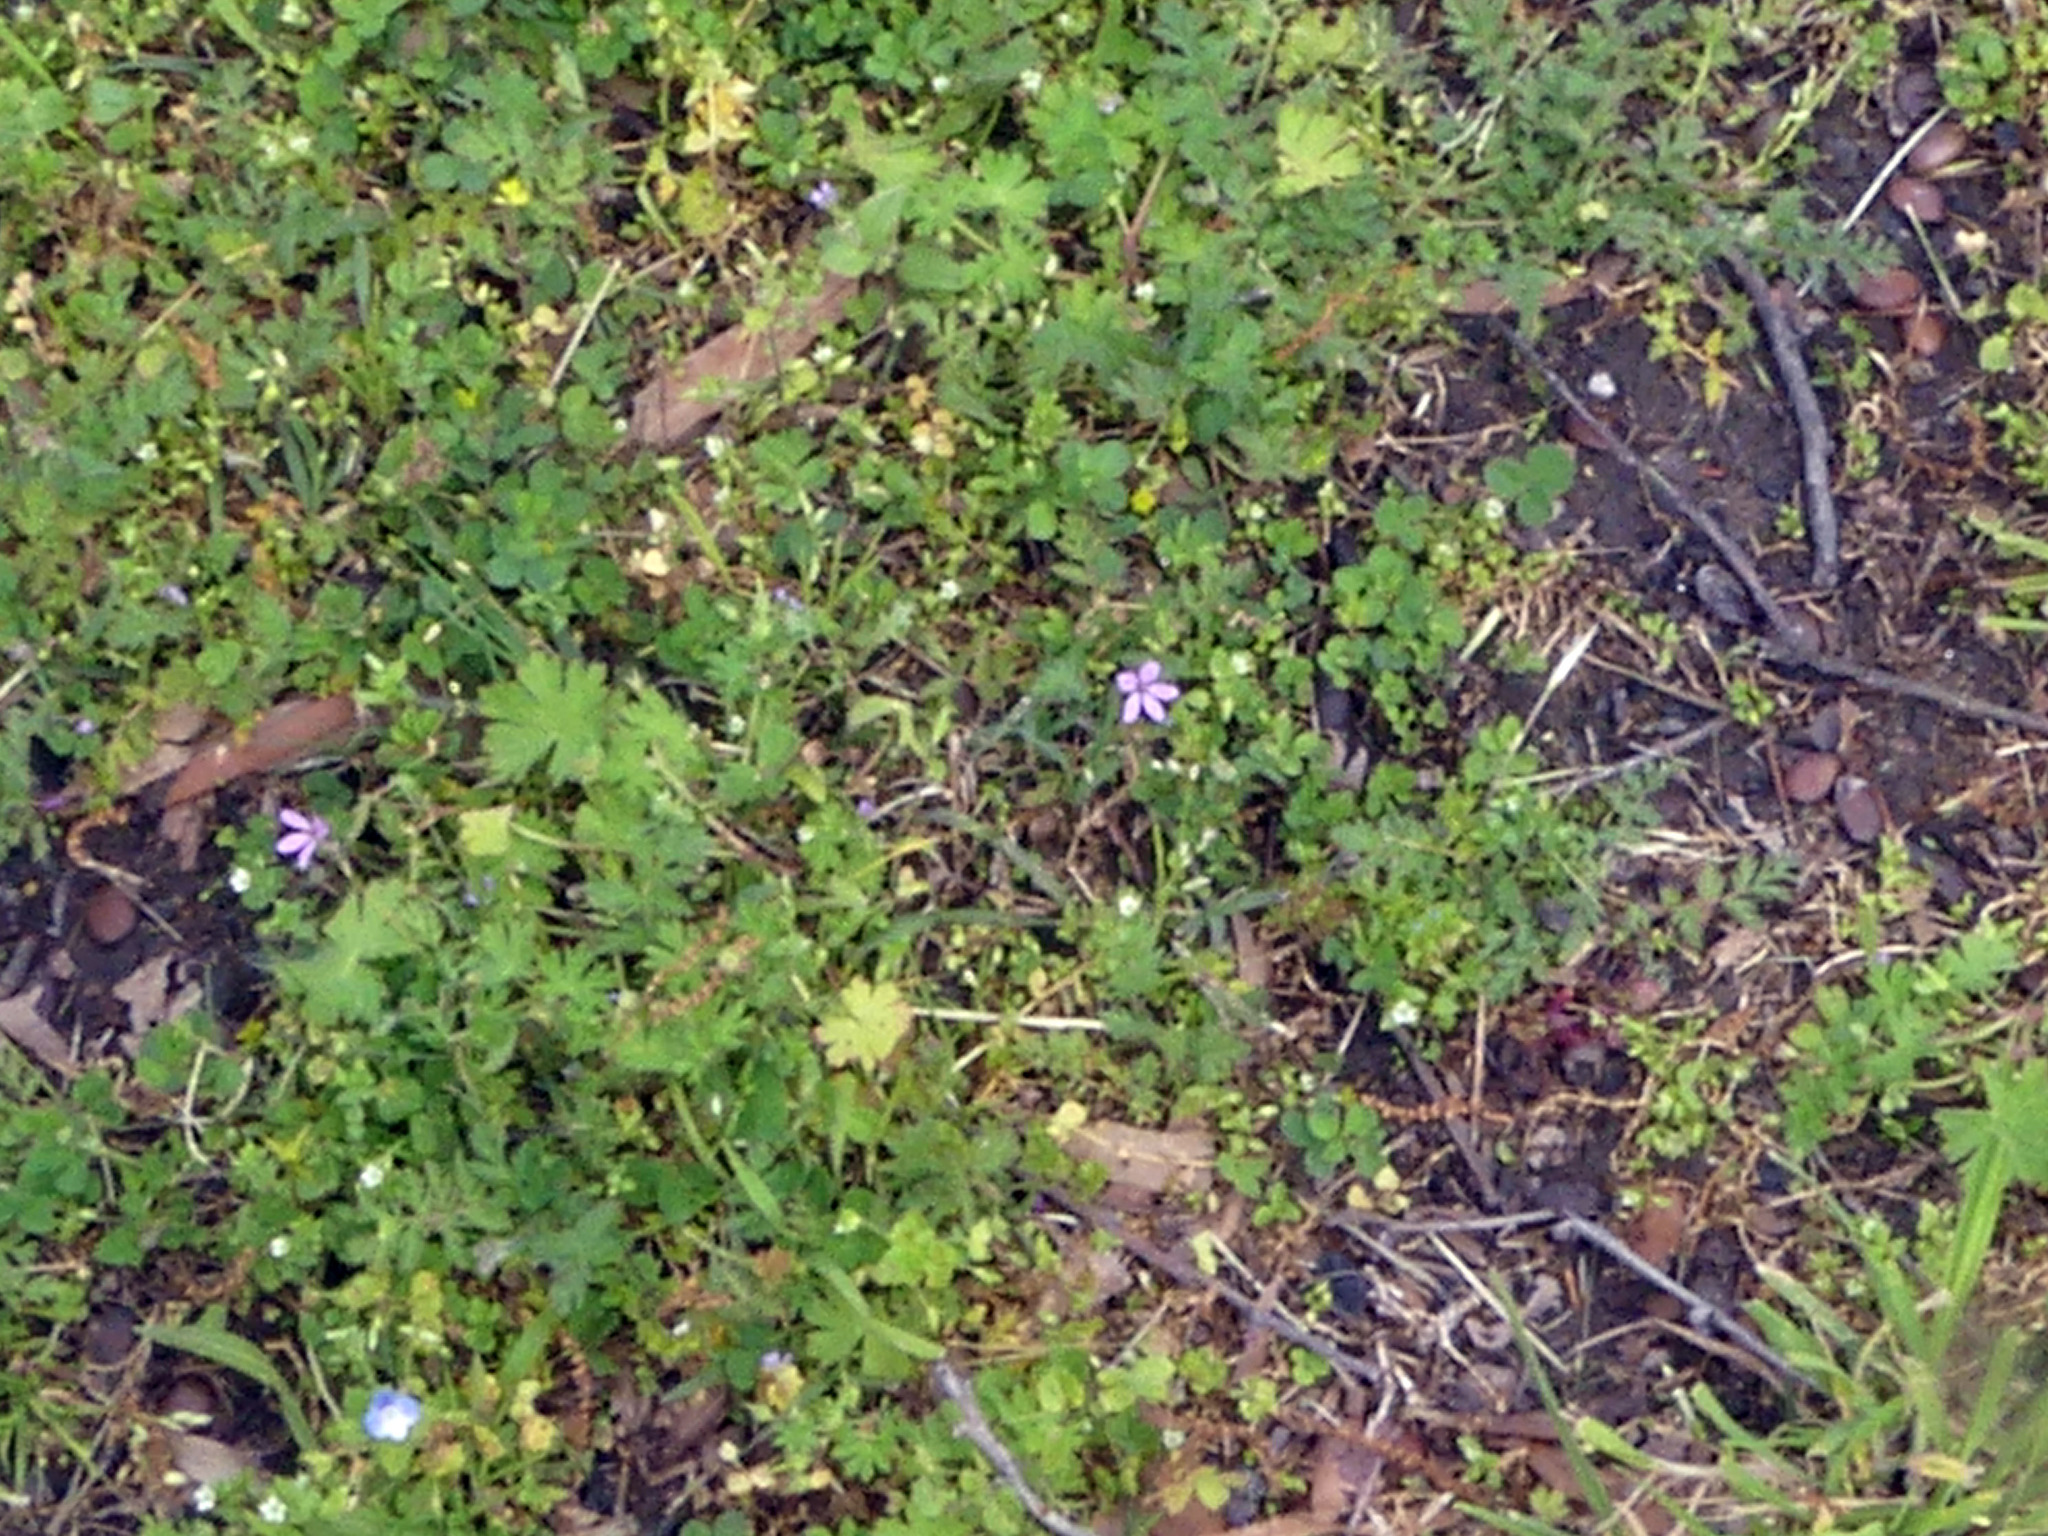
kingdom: Plantae
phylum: Tracheophyta
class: Magnoliopsida
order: Geraniales
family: Geraniaceae
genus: Erodium
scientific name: Erodium cicutarium
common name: Common stork's-bill
